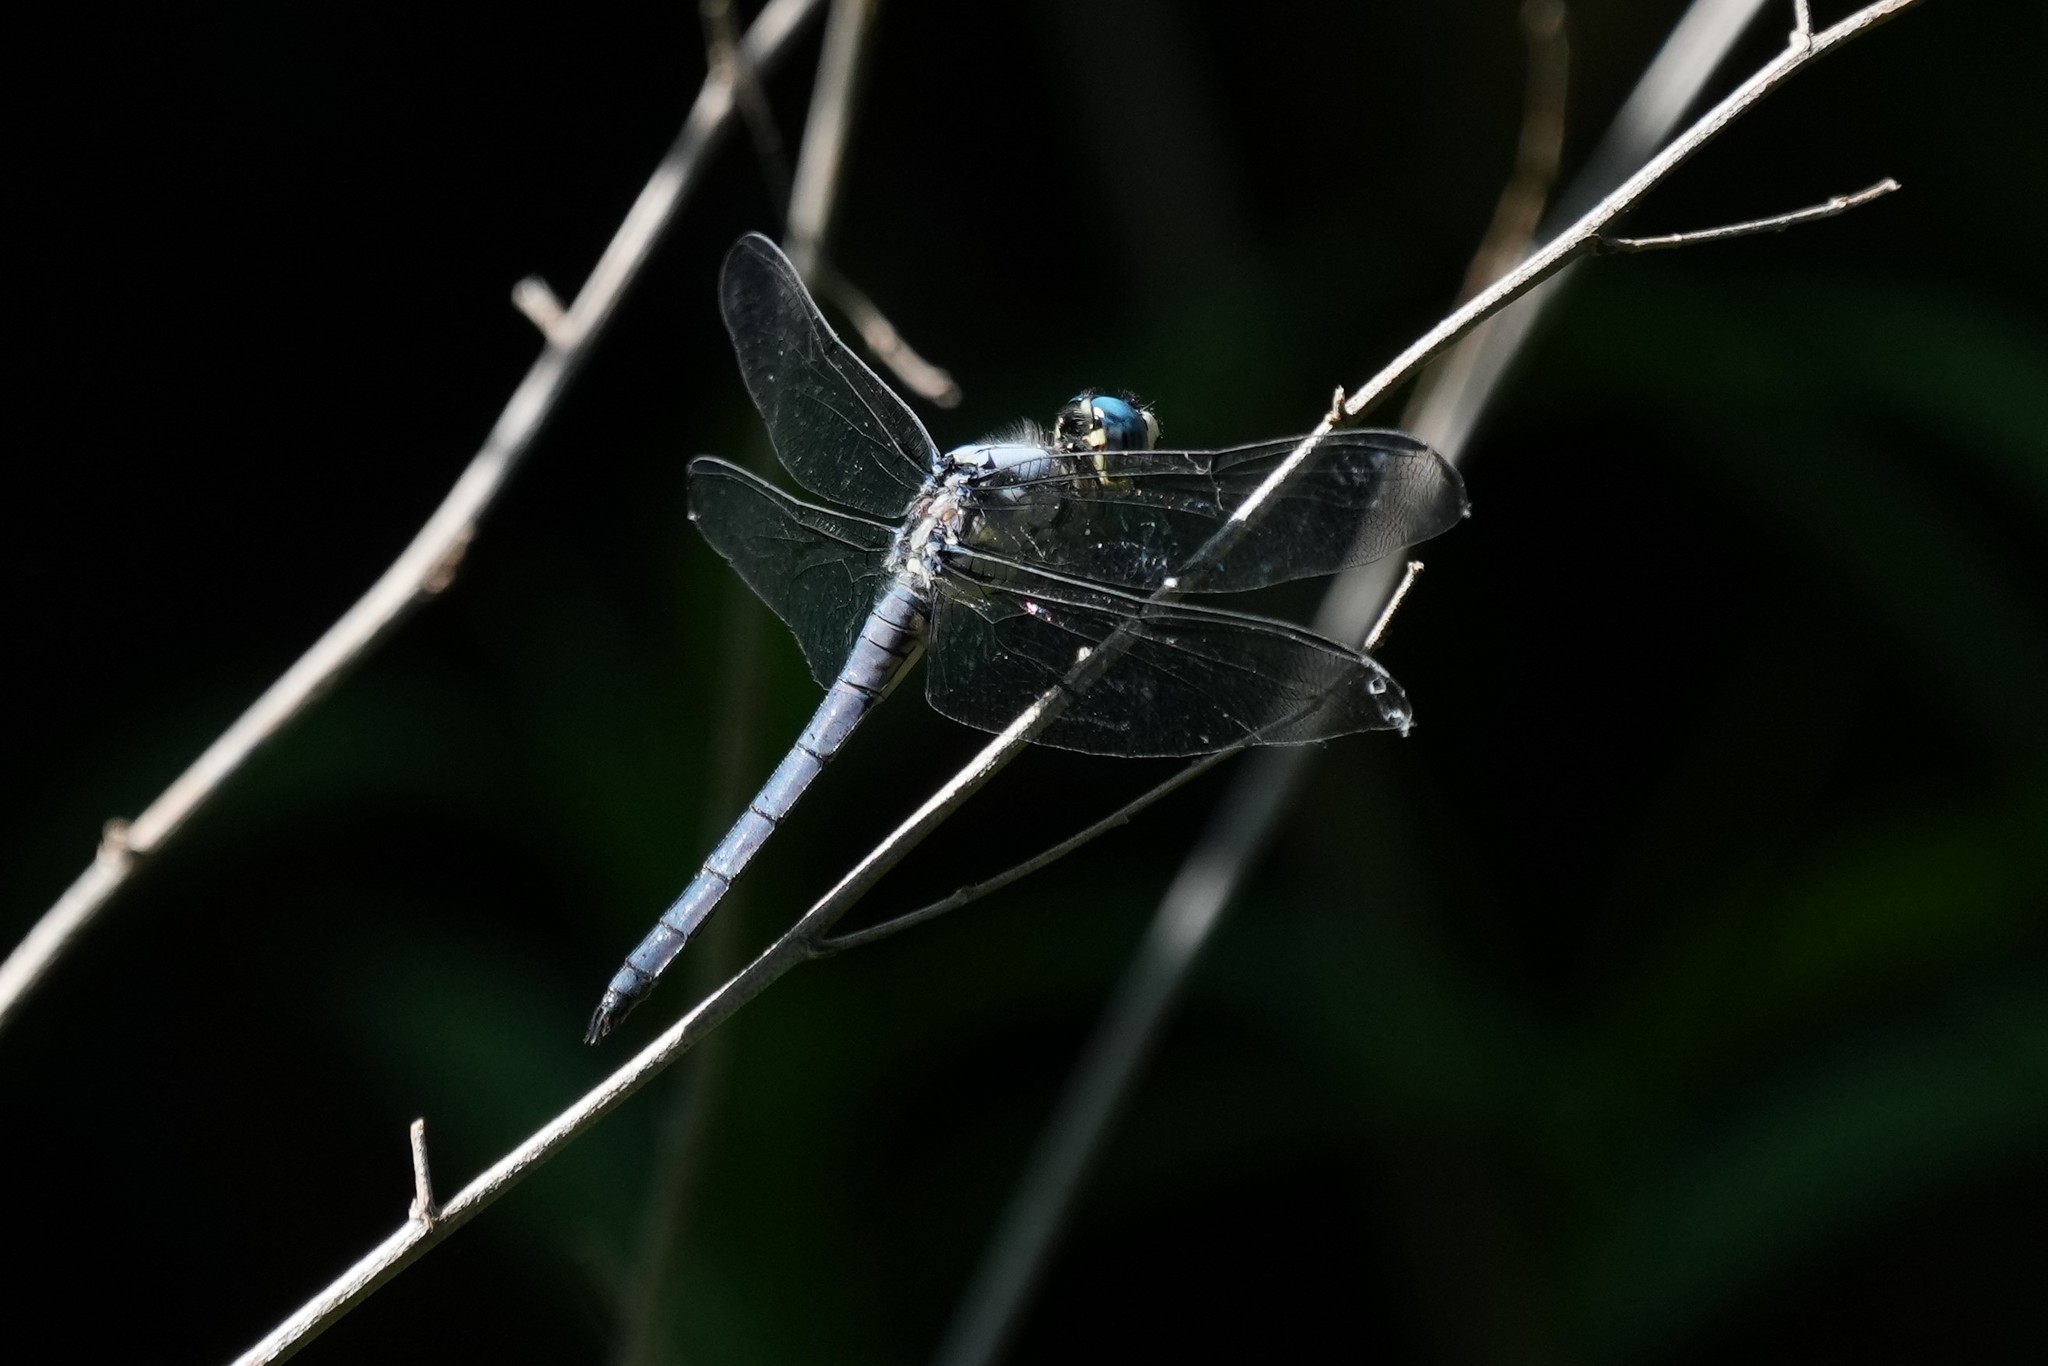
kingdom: Animalia
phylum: Arthropoda
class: Insecta
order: Odonata
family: Libellulidae
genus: Libellula
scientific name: Libellula vibrans
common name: Great blue skimmer
